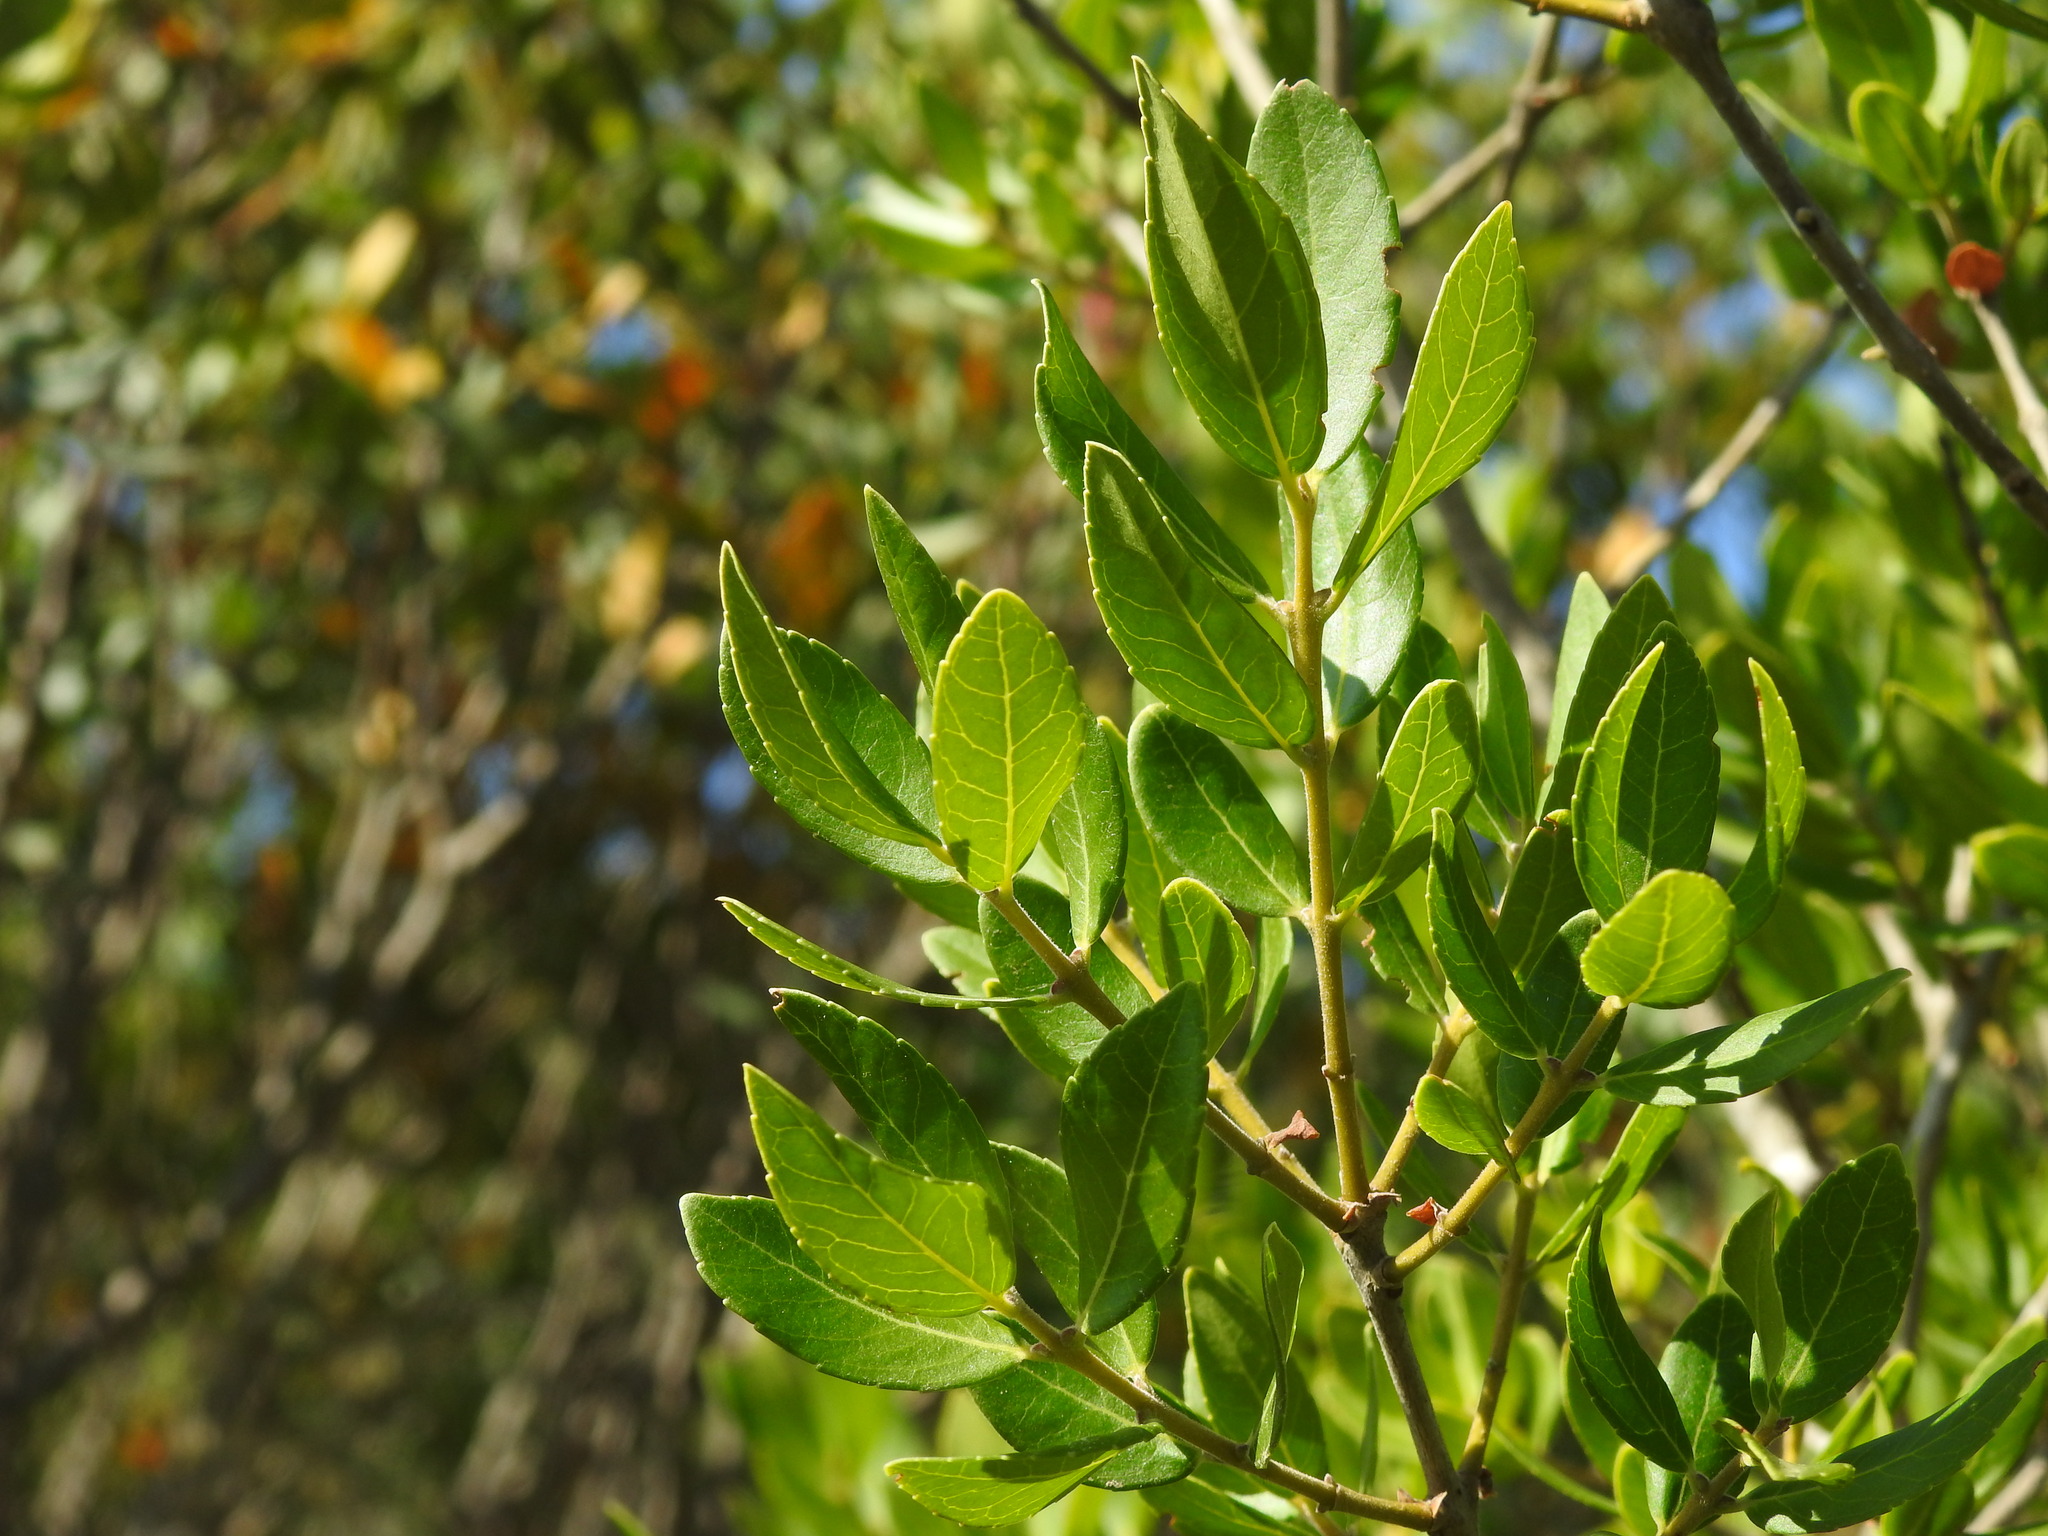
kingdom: Plantae
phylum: Tracheophyta
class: Magnoliopsida
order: Lamiales
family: Oleaceae
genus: Phillyrea
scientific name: Phillyrea latifolia
